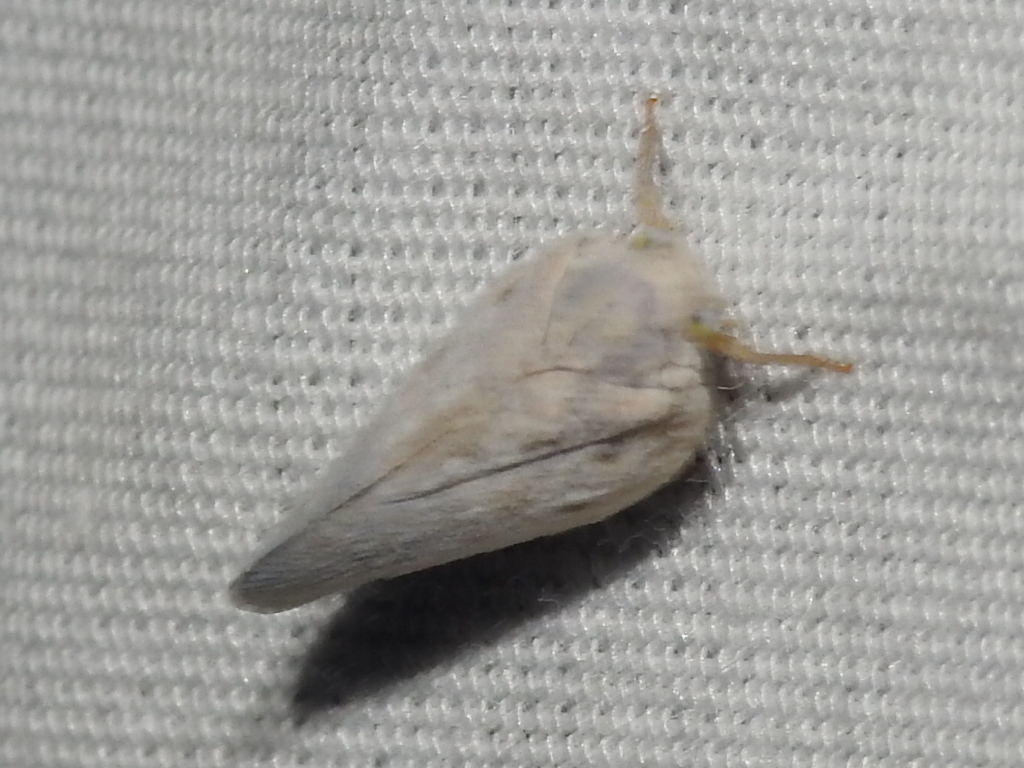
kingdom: Animalia
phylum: Arthropoda
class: Insecta
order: Hemiptera
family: Flatidae
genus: Metcalfa
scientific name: Metcalfa pruinosa
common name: Citrus flatid planthopper
